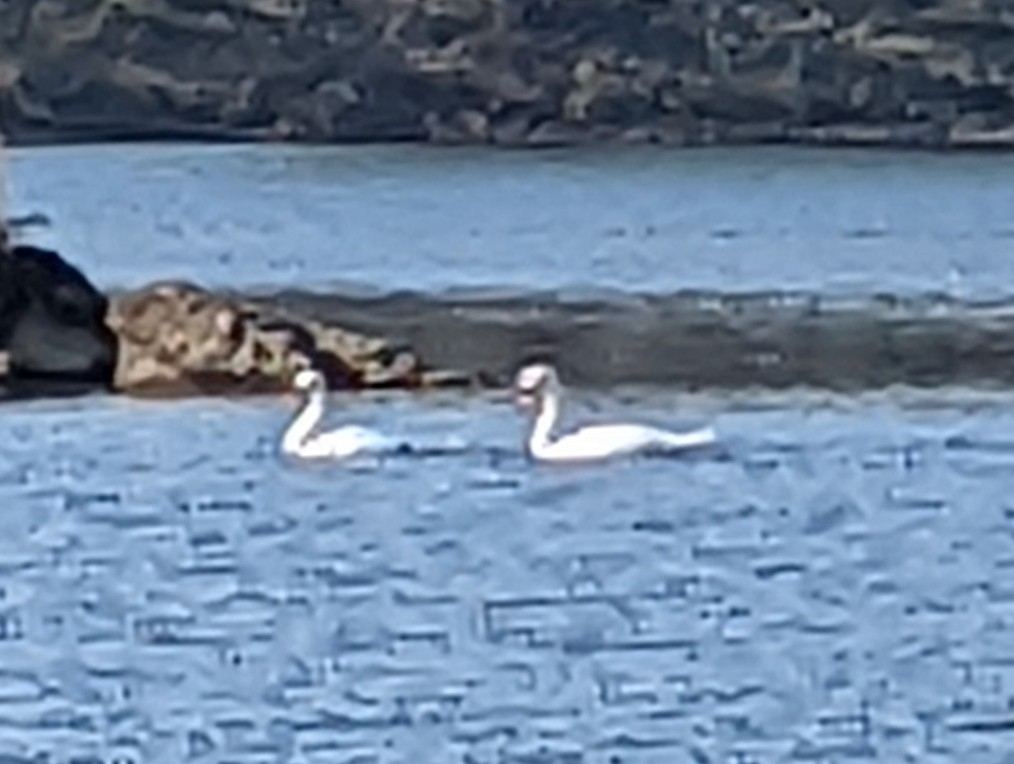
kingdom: Animalia
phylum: Chordata
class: Aves
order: Anseriformes
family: Anatidae
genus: Cygnus
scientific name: Cygnus olor
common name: Mute swan
